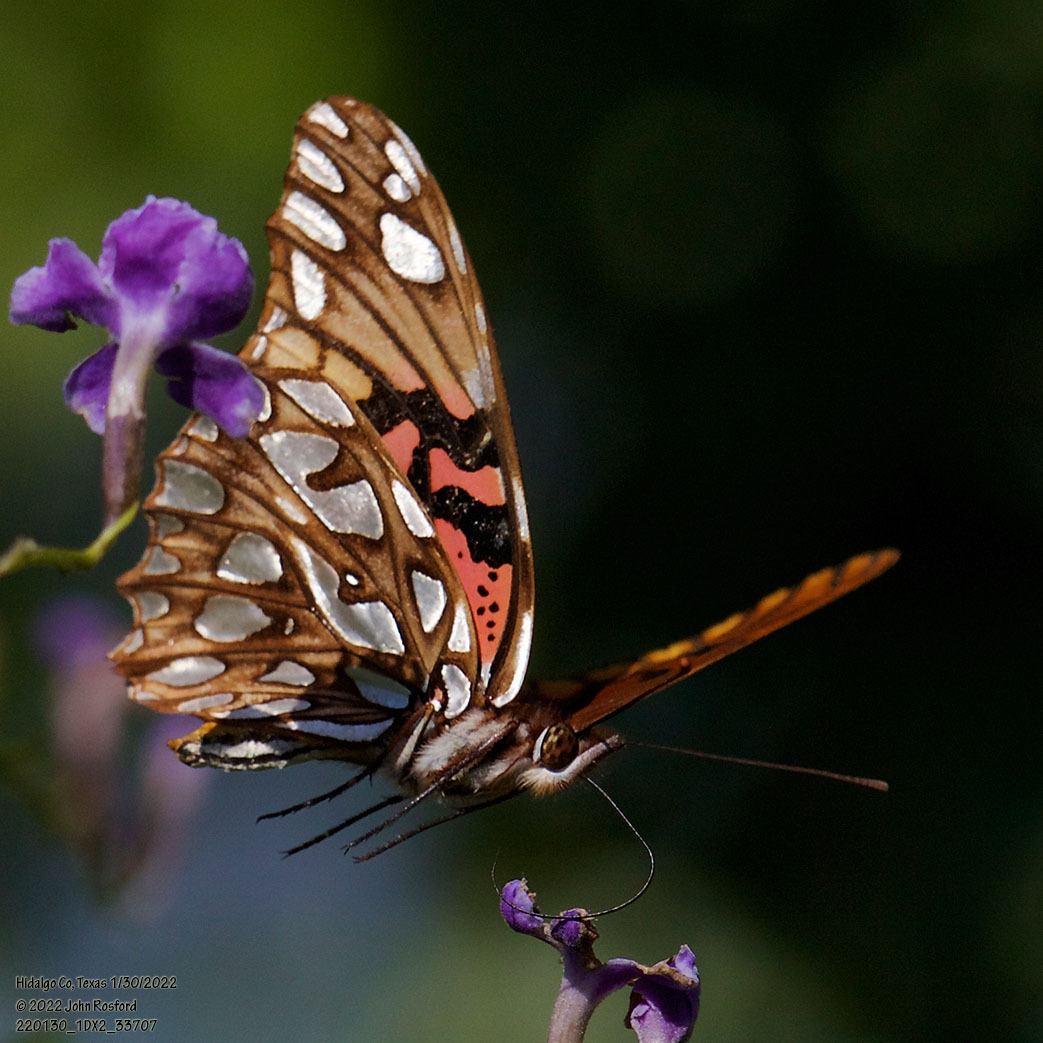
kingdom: Animalia
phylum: Arthropoda
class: Insecta
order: Lepidoptera
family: Nymphalidae
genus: Dione
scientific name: Dione moneta
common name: Mexican silverspot
